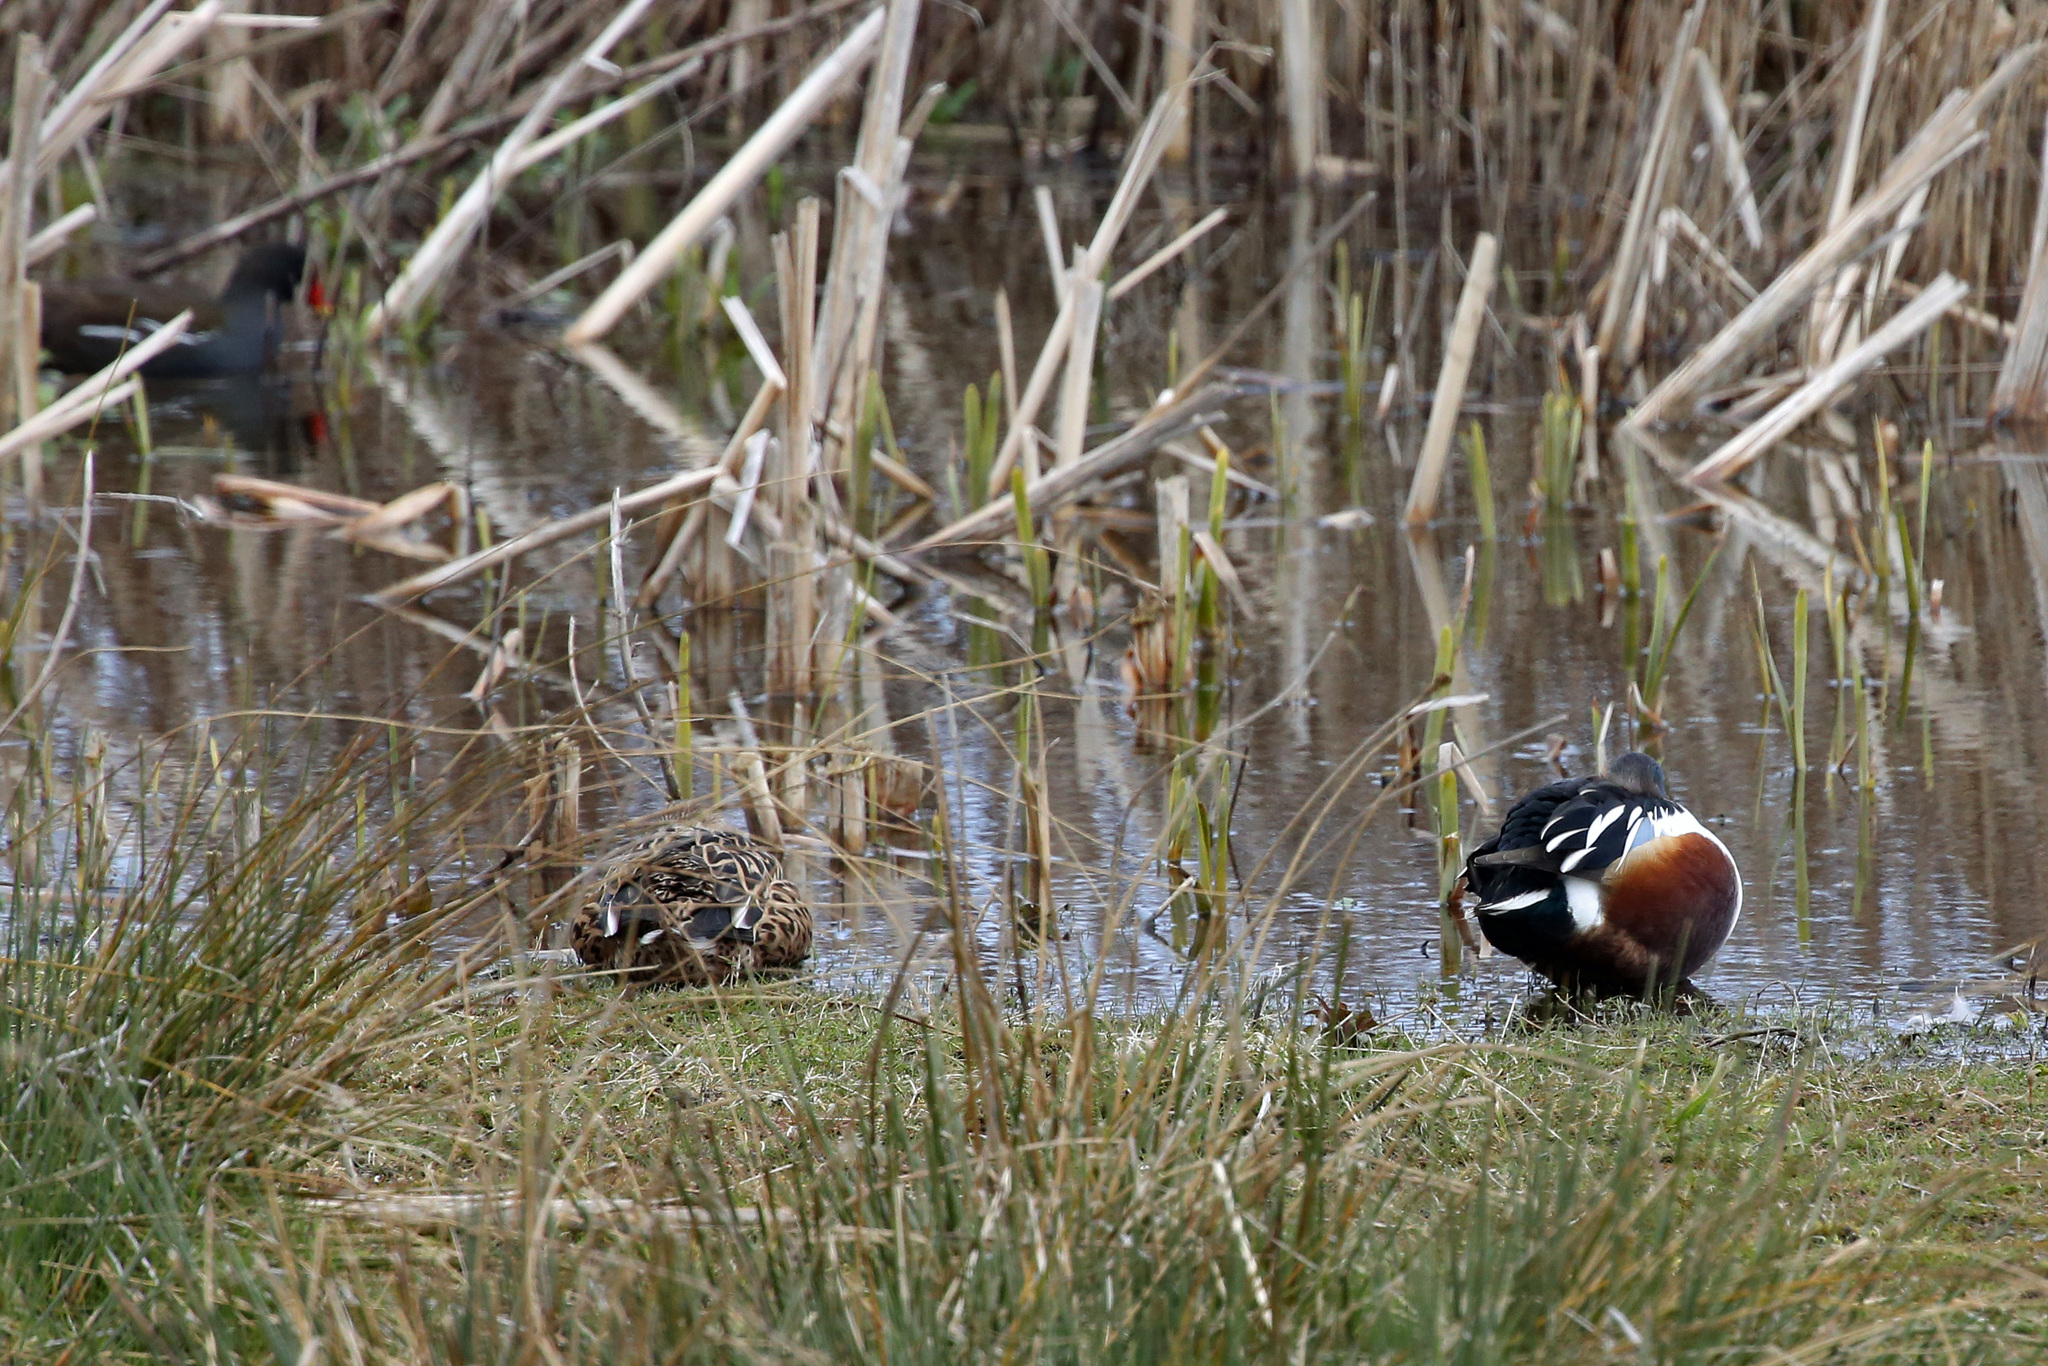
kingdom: Animalia
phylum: Chordata
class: Aves
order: Anseriformes
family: Anatidae
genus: Spatula
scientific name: Spatula clypeata
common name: Northern shoveler
